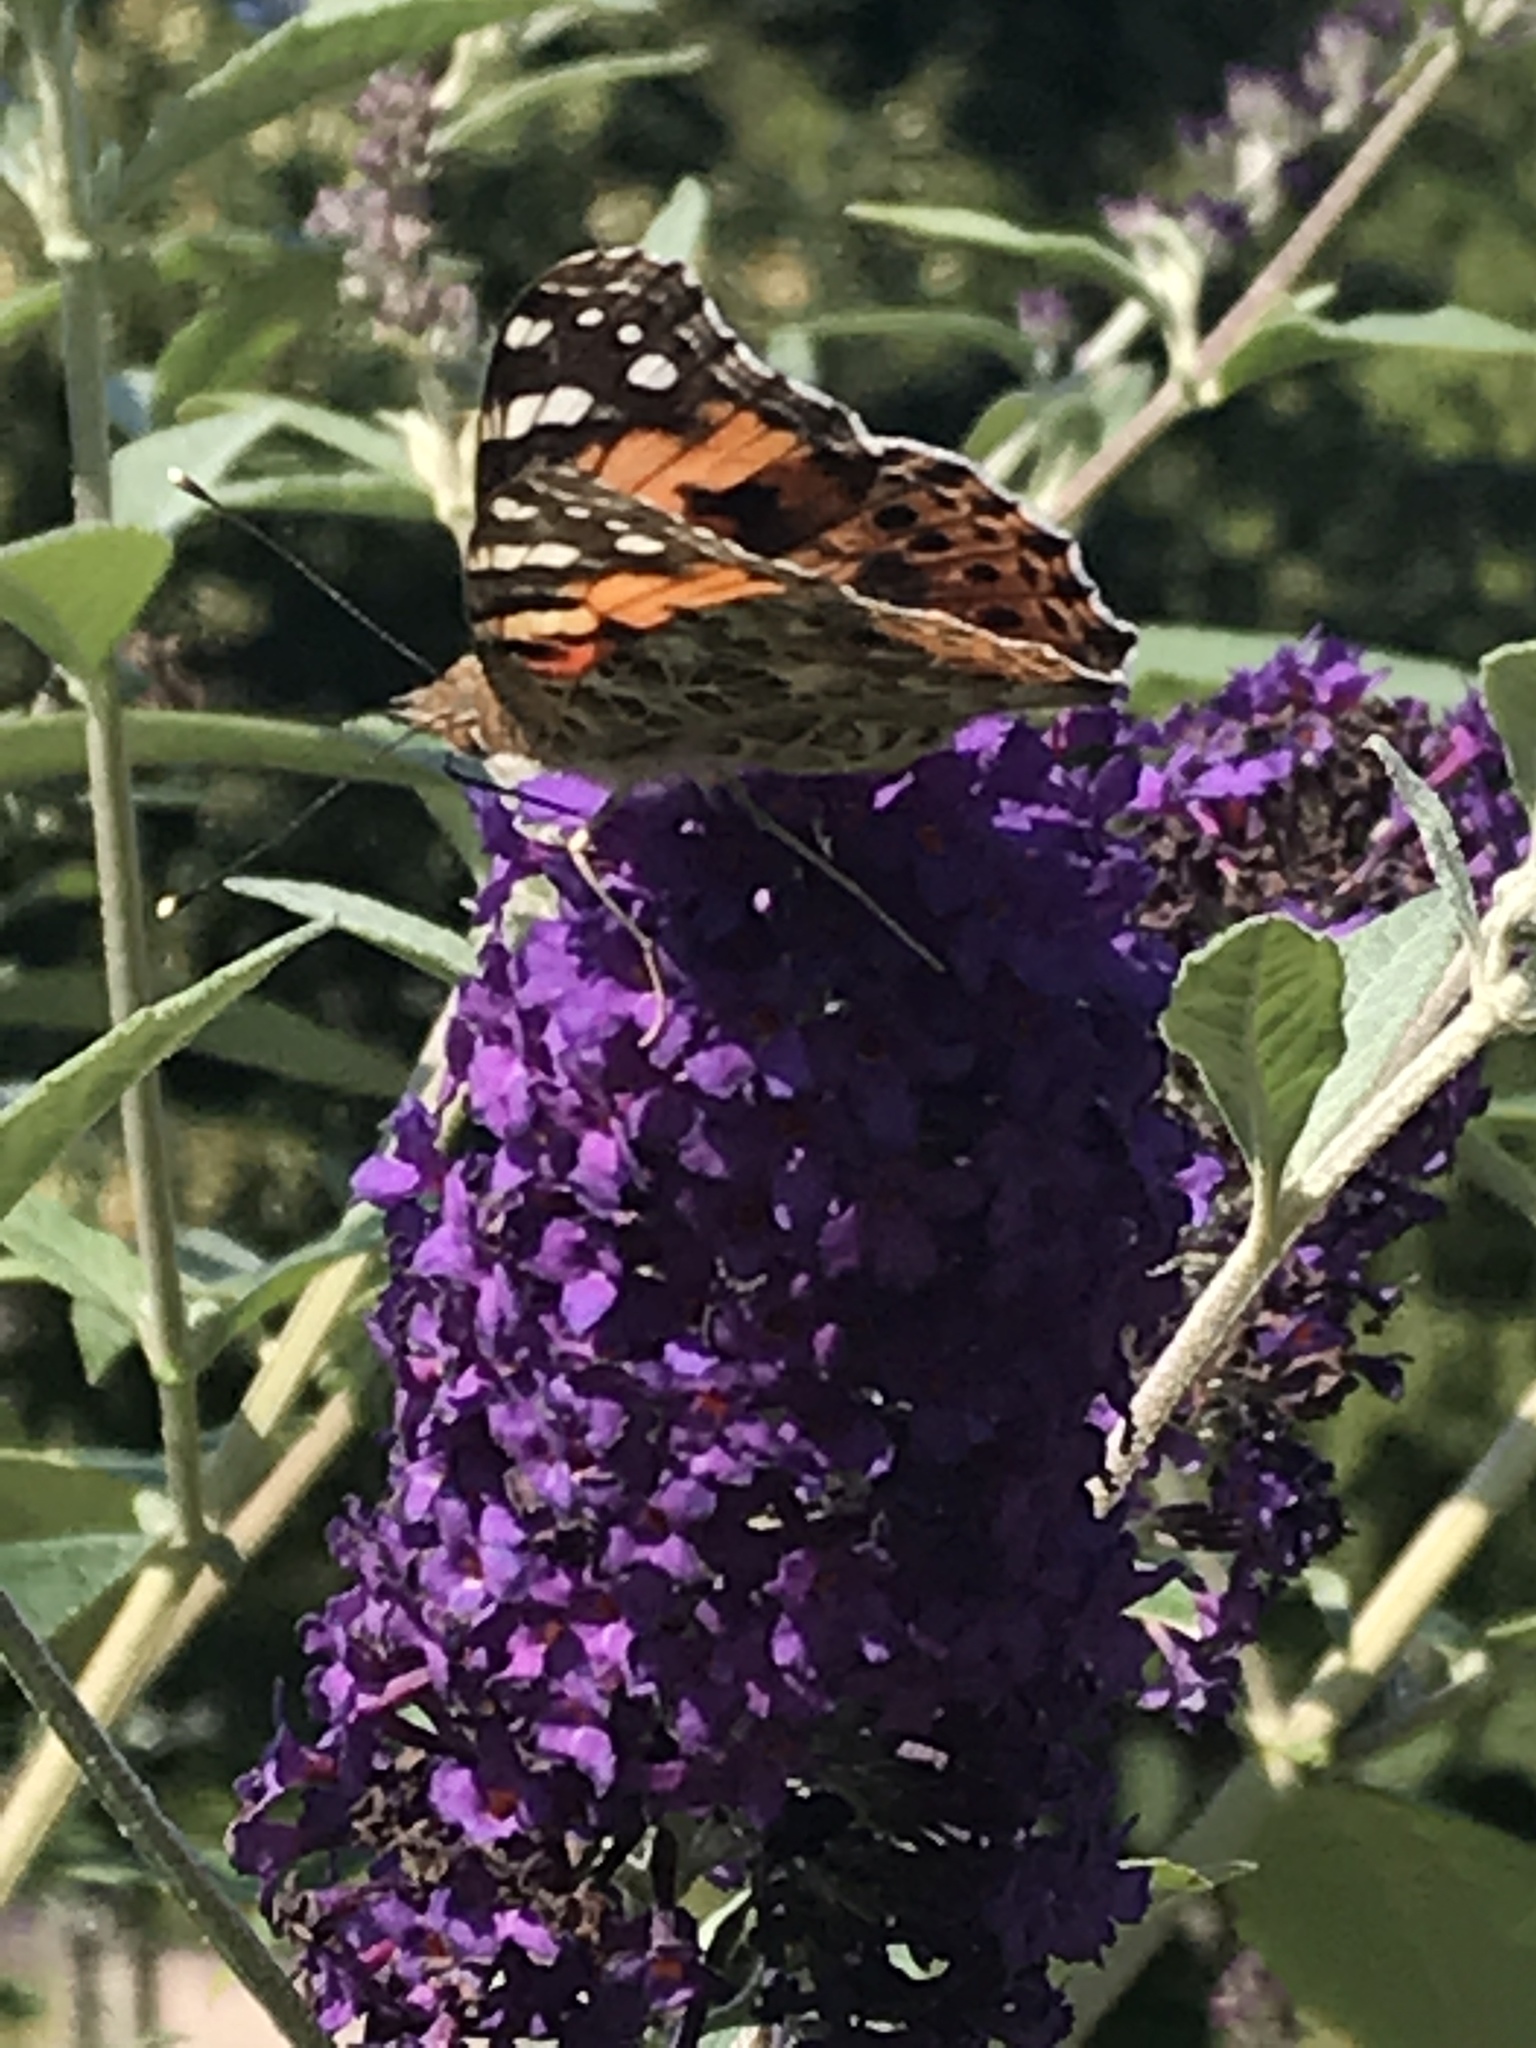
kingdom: Animalia
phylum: Arthropoda
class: Insecta
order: Lepidoptera
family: Nymphalidae
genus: Vanessa
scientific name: Vanessa cardui
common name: Painted lady
